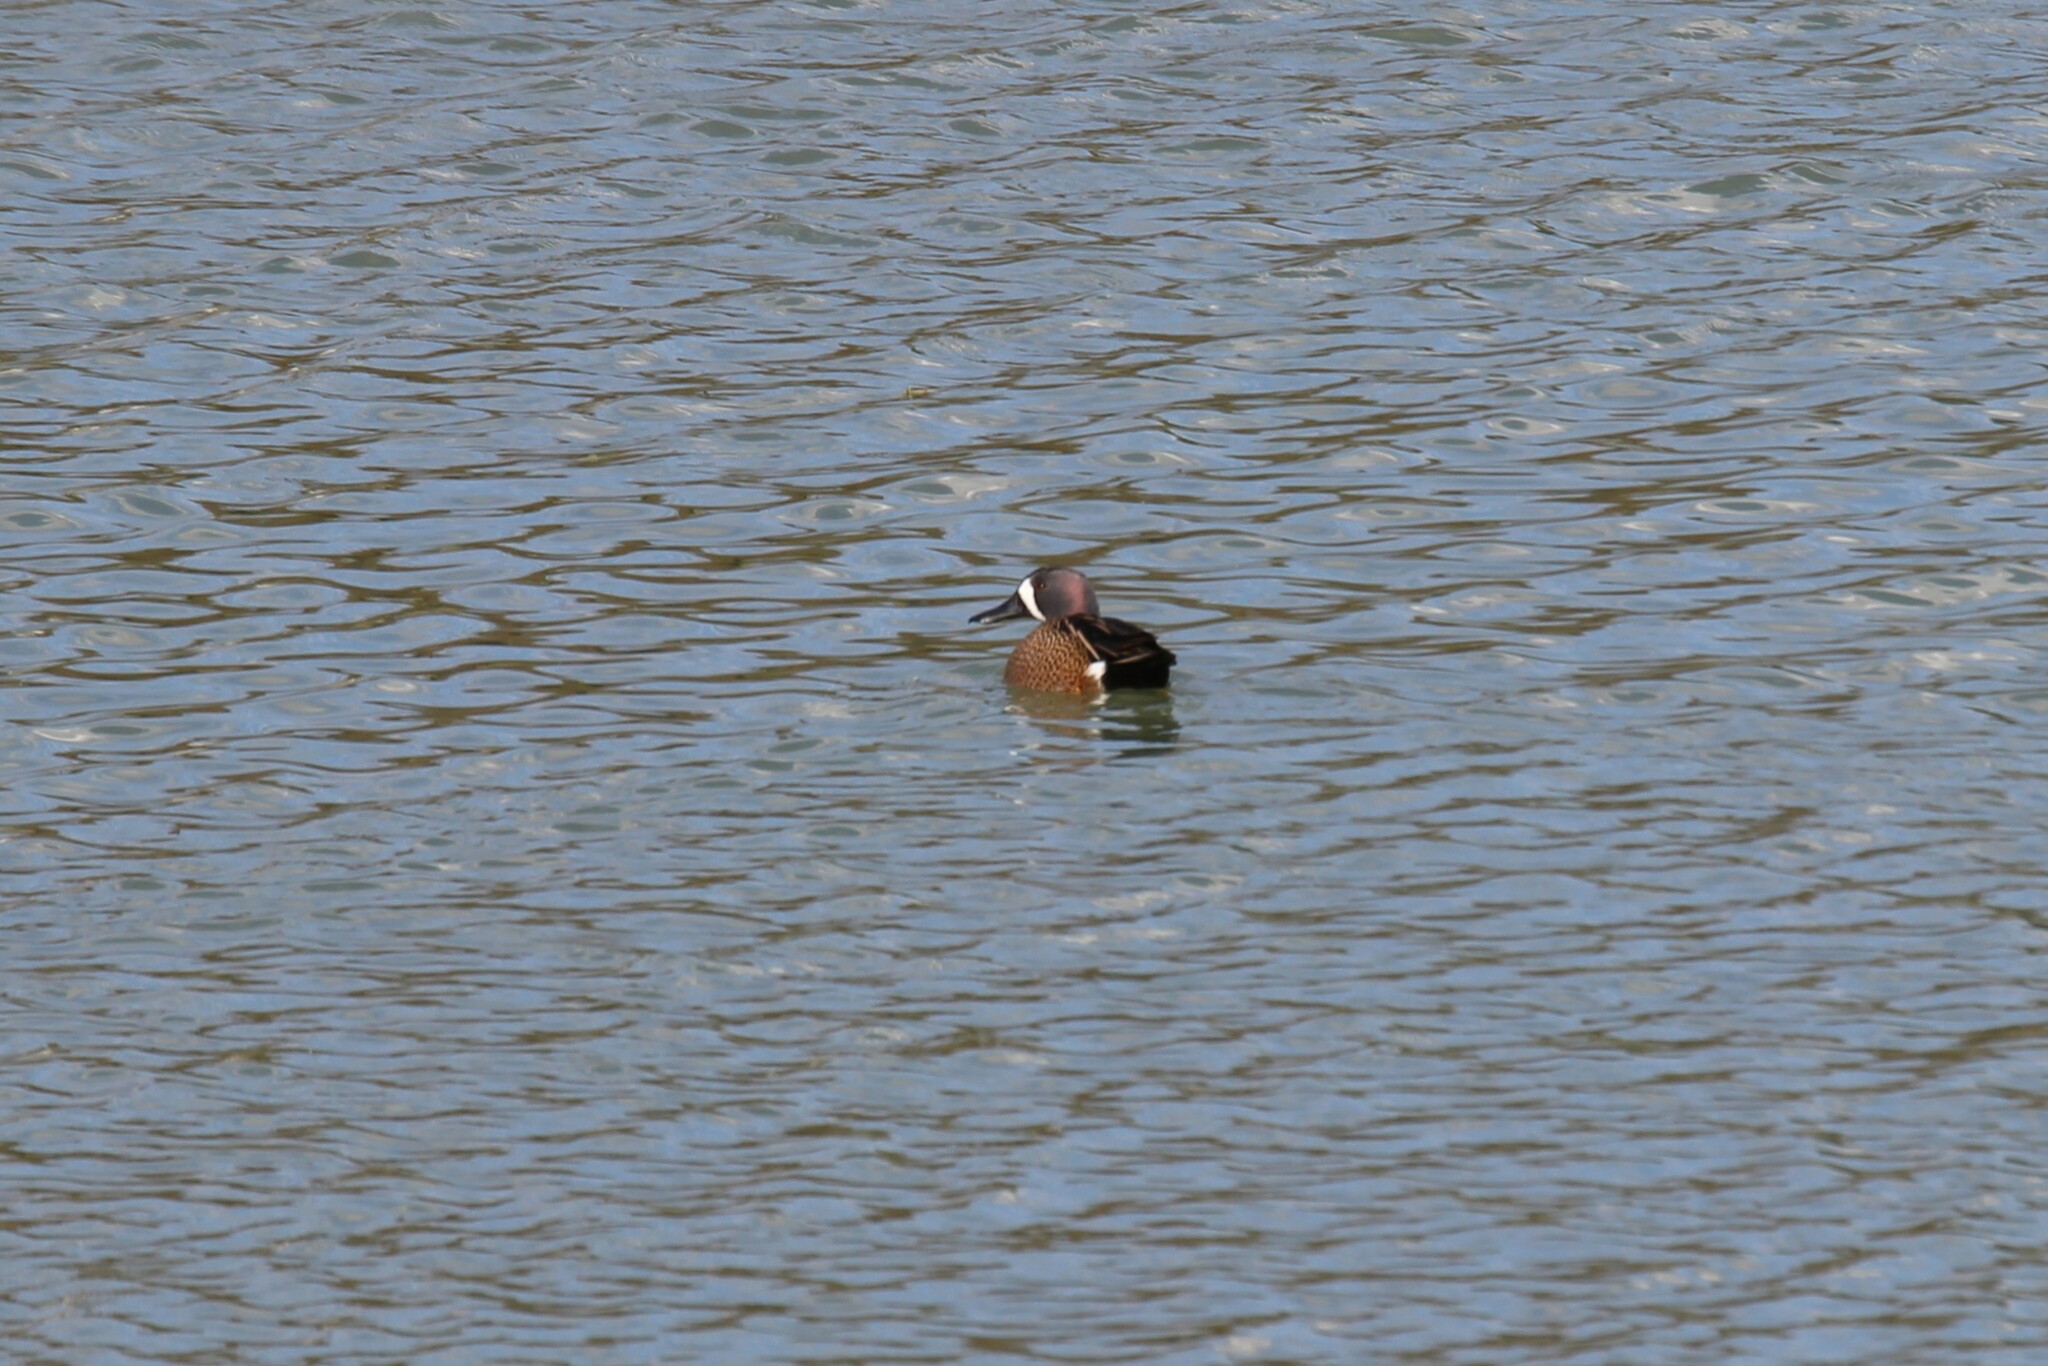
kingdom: Animalia
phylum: Chordata
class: Aves
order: Anseriformes
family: Anatidae
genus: Spatula
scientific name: Spatula discors
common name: Blue-winged teal
